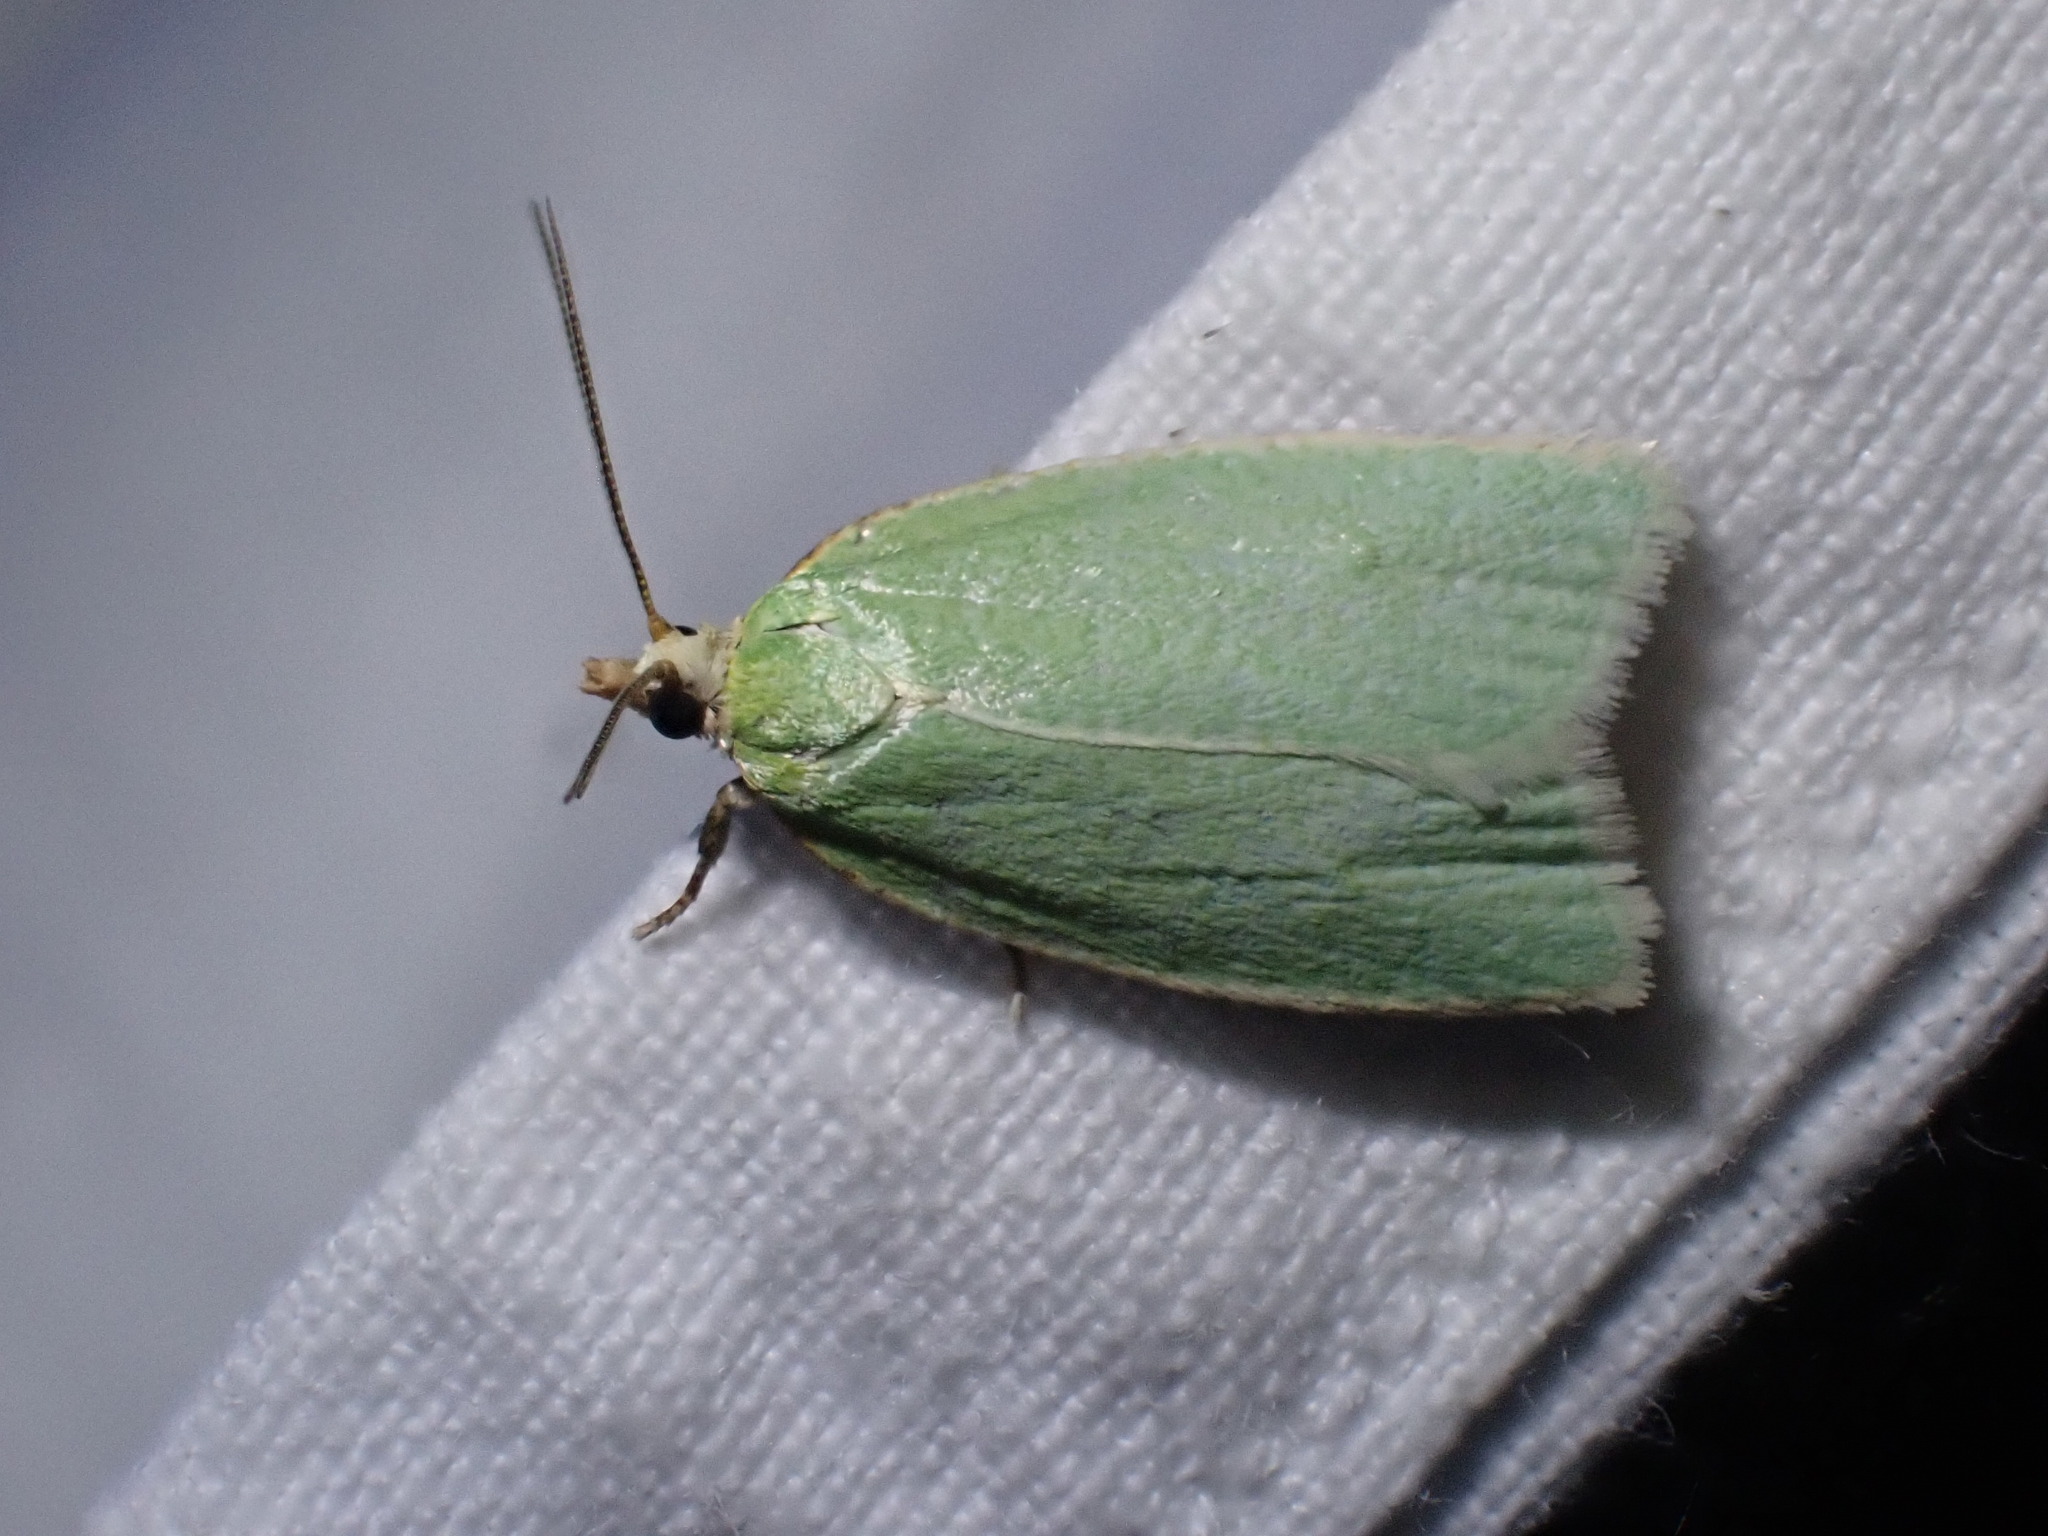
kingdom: Animalia
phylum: Arthropoda
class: Insecta
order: Lepidoptera
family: Tortricidae
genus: Tortrix
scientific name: Tortrix viridana
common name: Green oak tortrix
